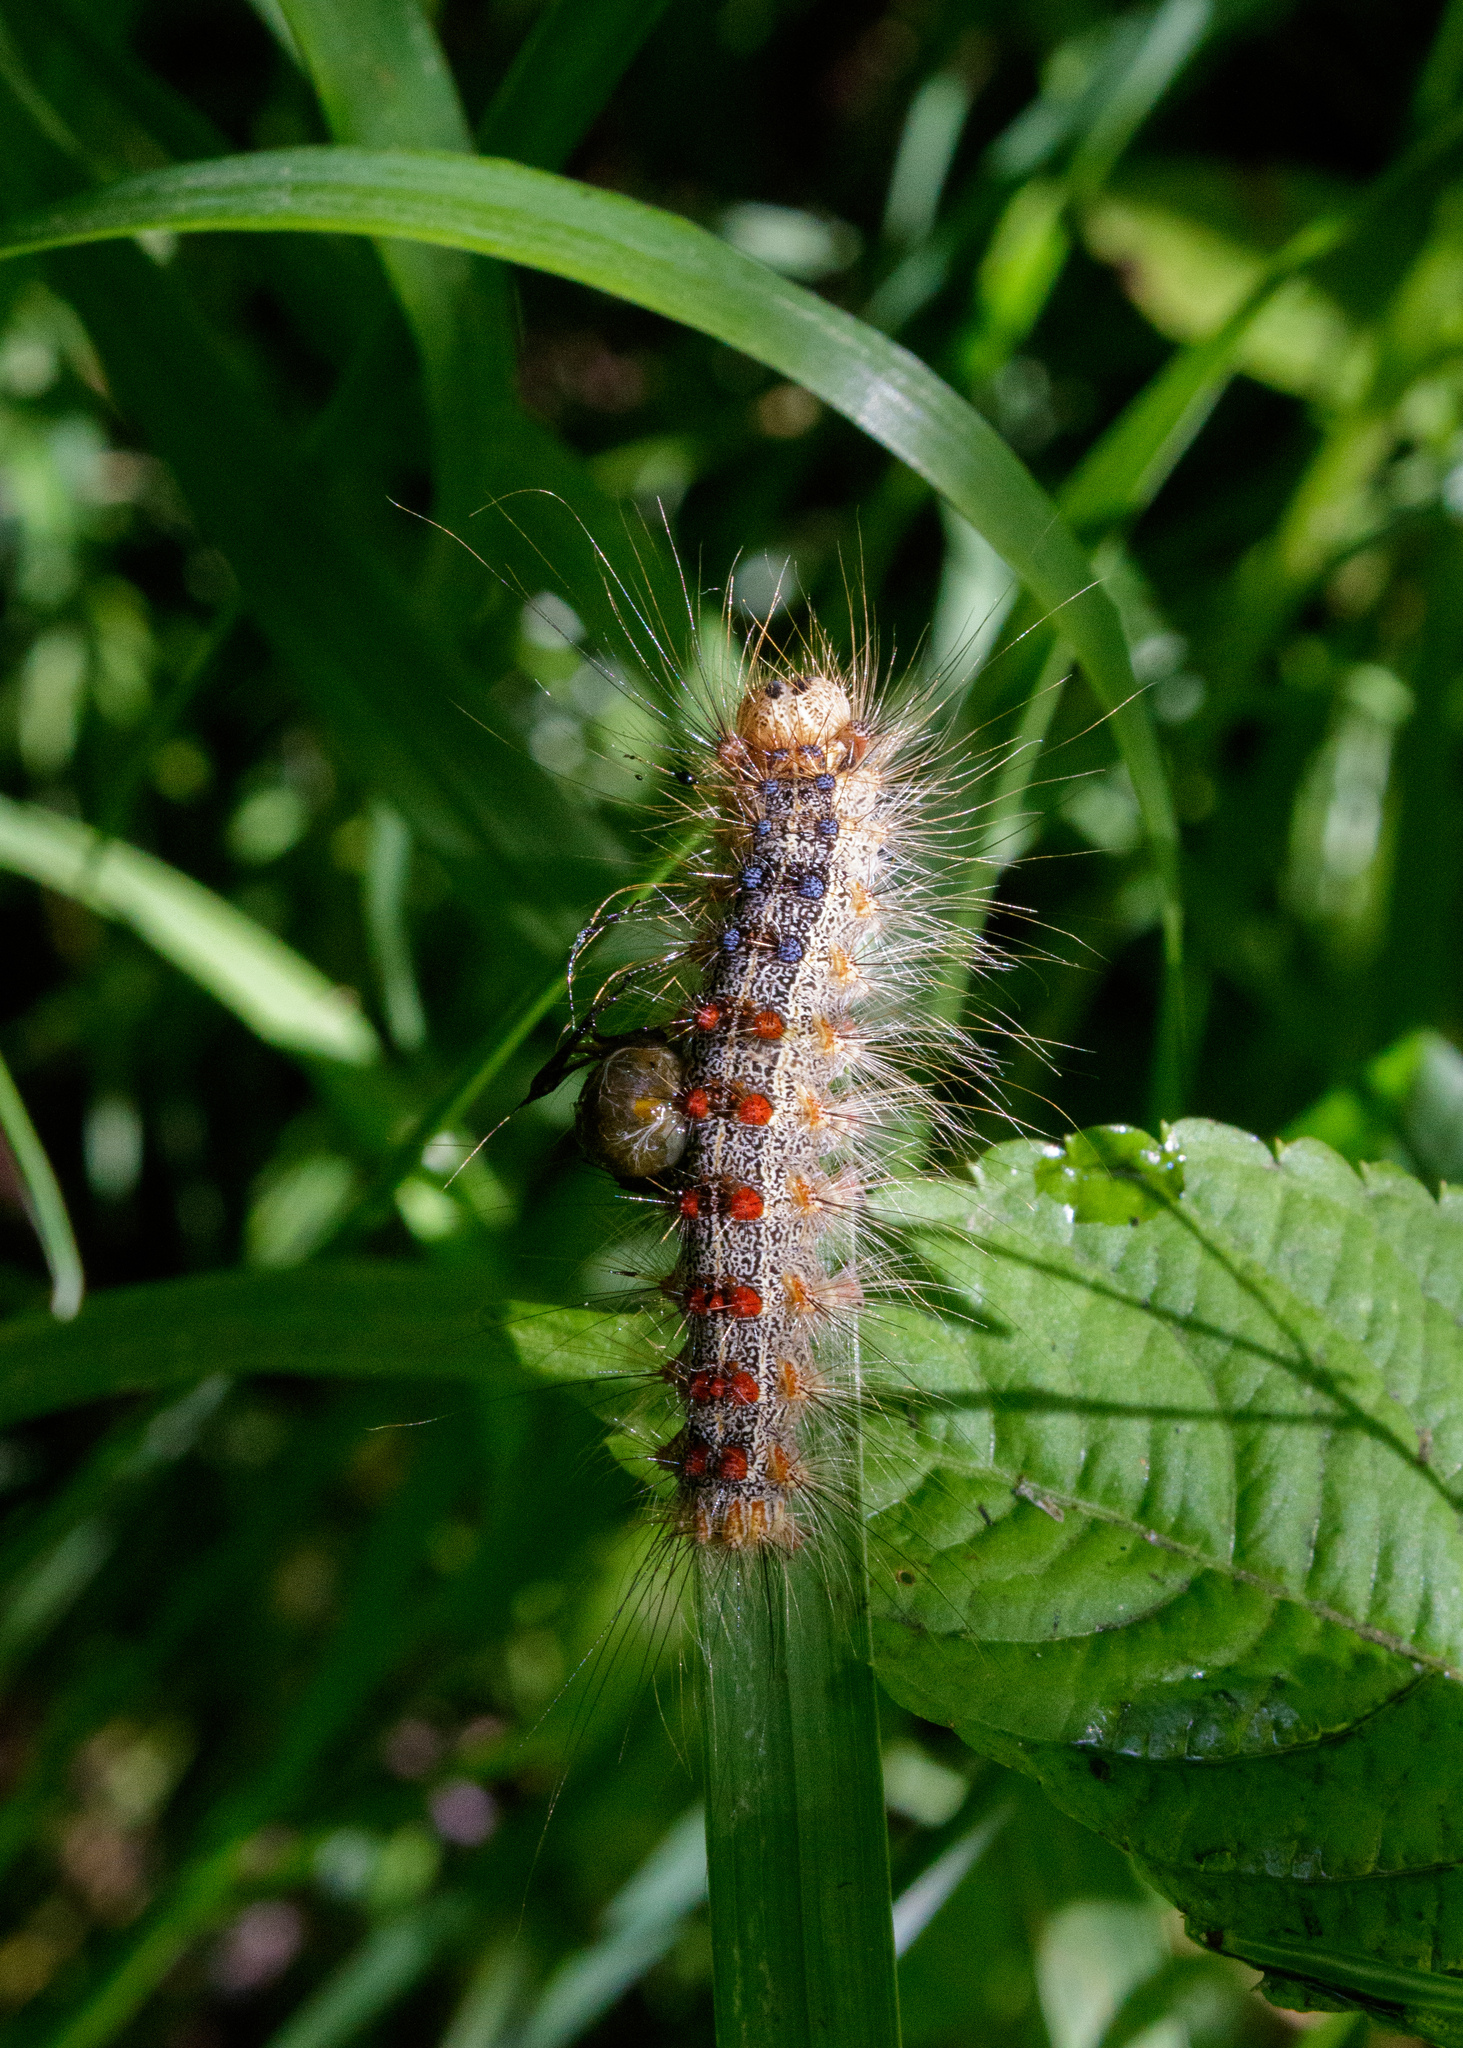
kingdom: Animalia
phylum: Arthropoda
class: Insecta
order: Lepidoptera
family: Erebidae
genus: Lymantria
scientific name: Lymantria dispar
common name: Gypsy moth
